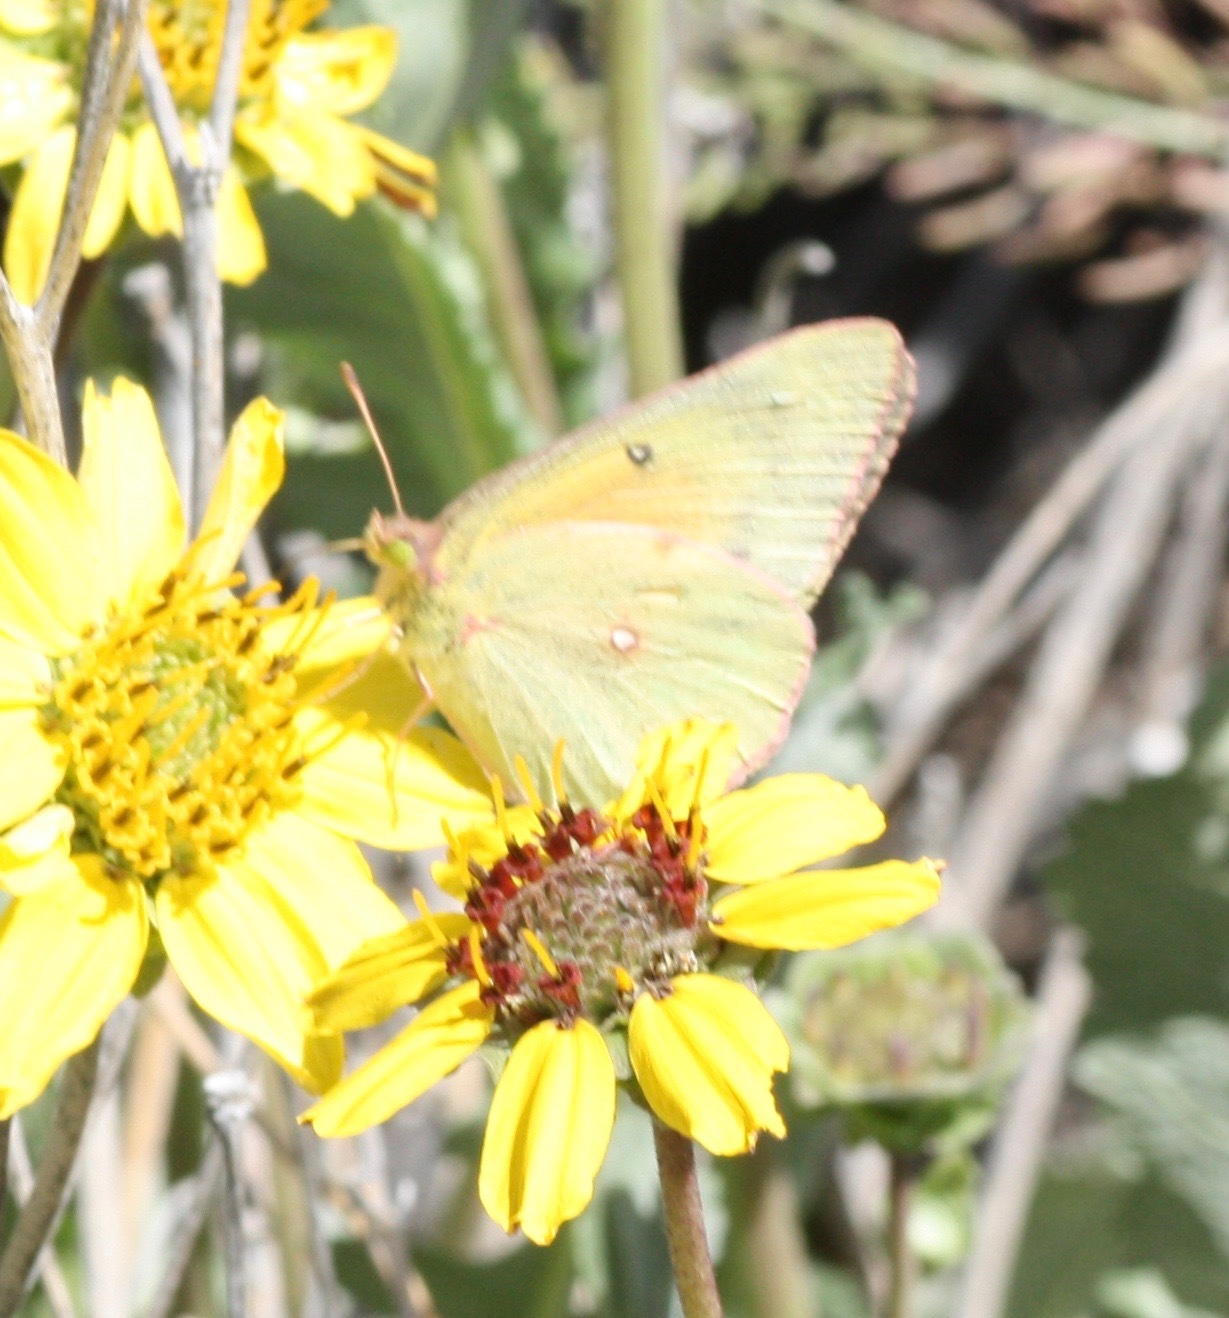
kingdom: Animalia
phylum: Arthropoda
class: Insecta
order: Lepidoptera
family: Pieridae
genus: Colias
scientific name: Colias eurytheme
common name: Alfalfa butterfly
